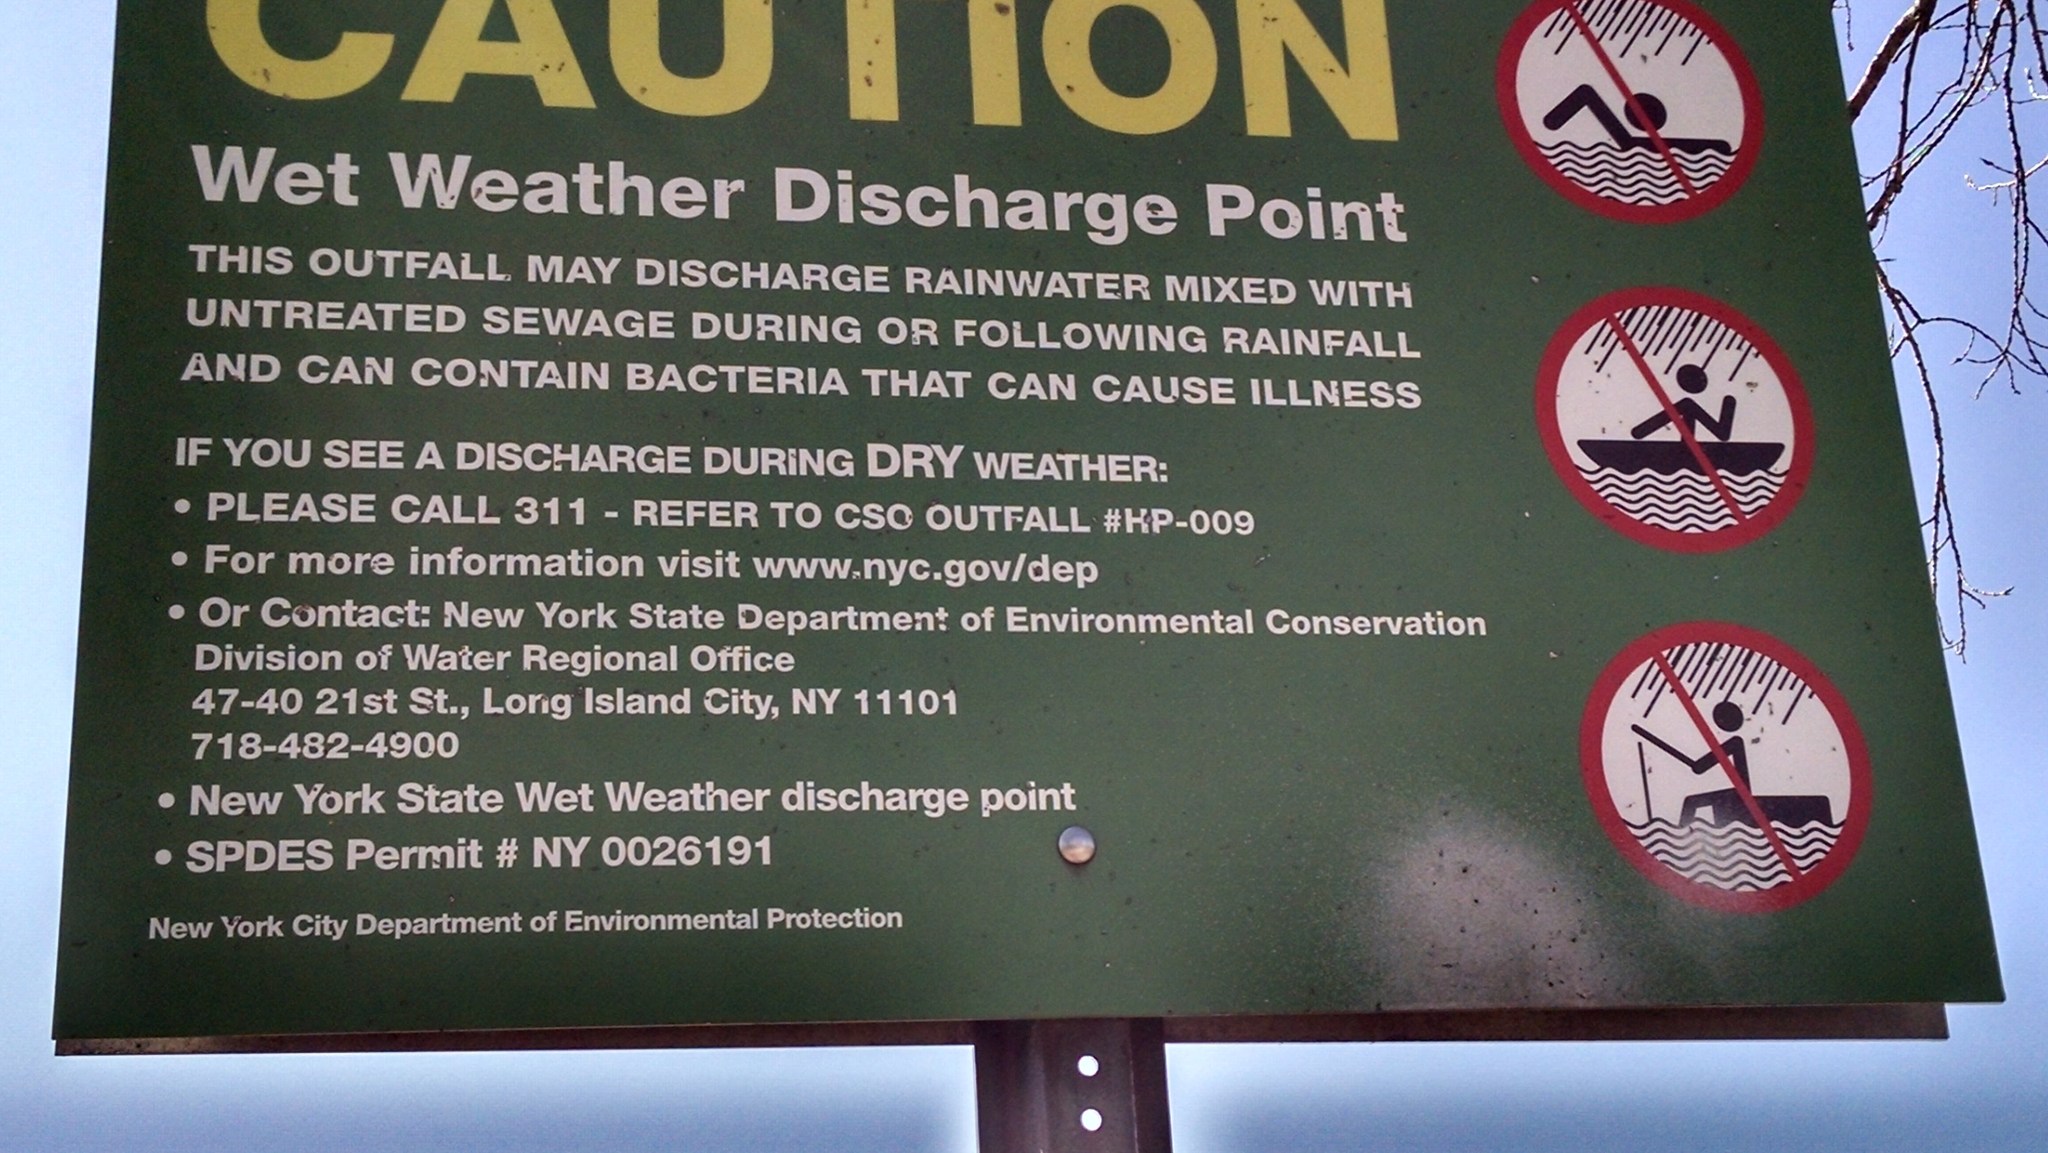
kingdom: Animalia
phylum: Mollusca
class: Bivalvia
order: Ostreida
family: Ostreidae
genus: Crassostrea
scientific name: Crassostrea virginica
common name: American oyster
